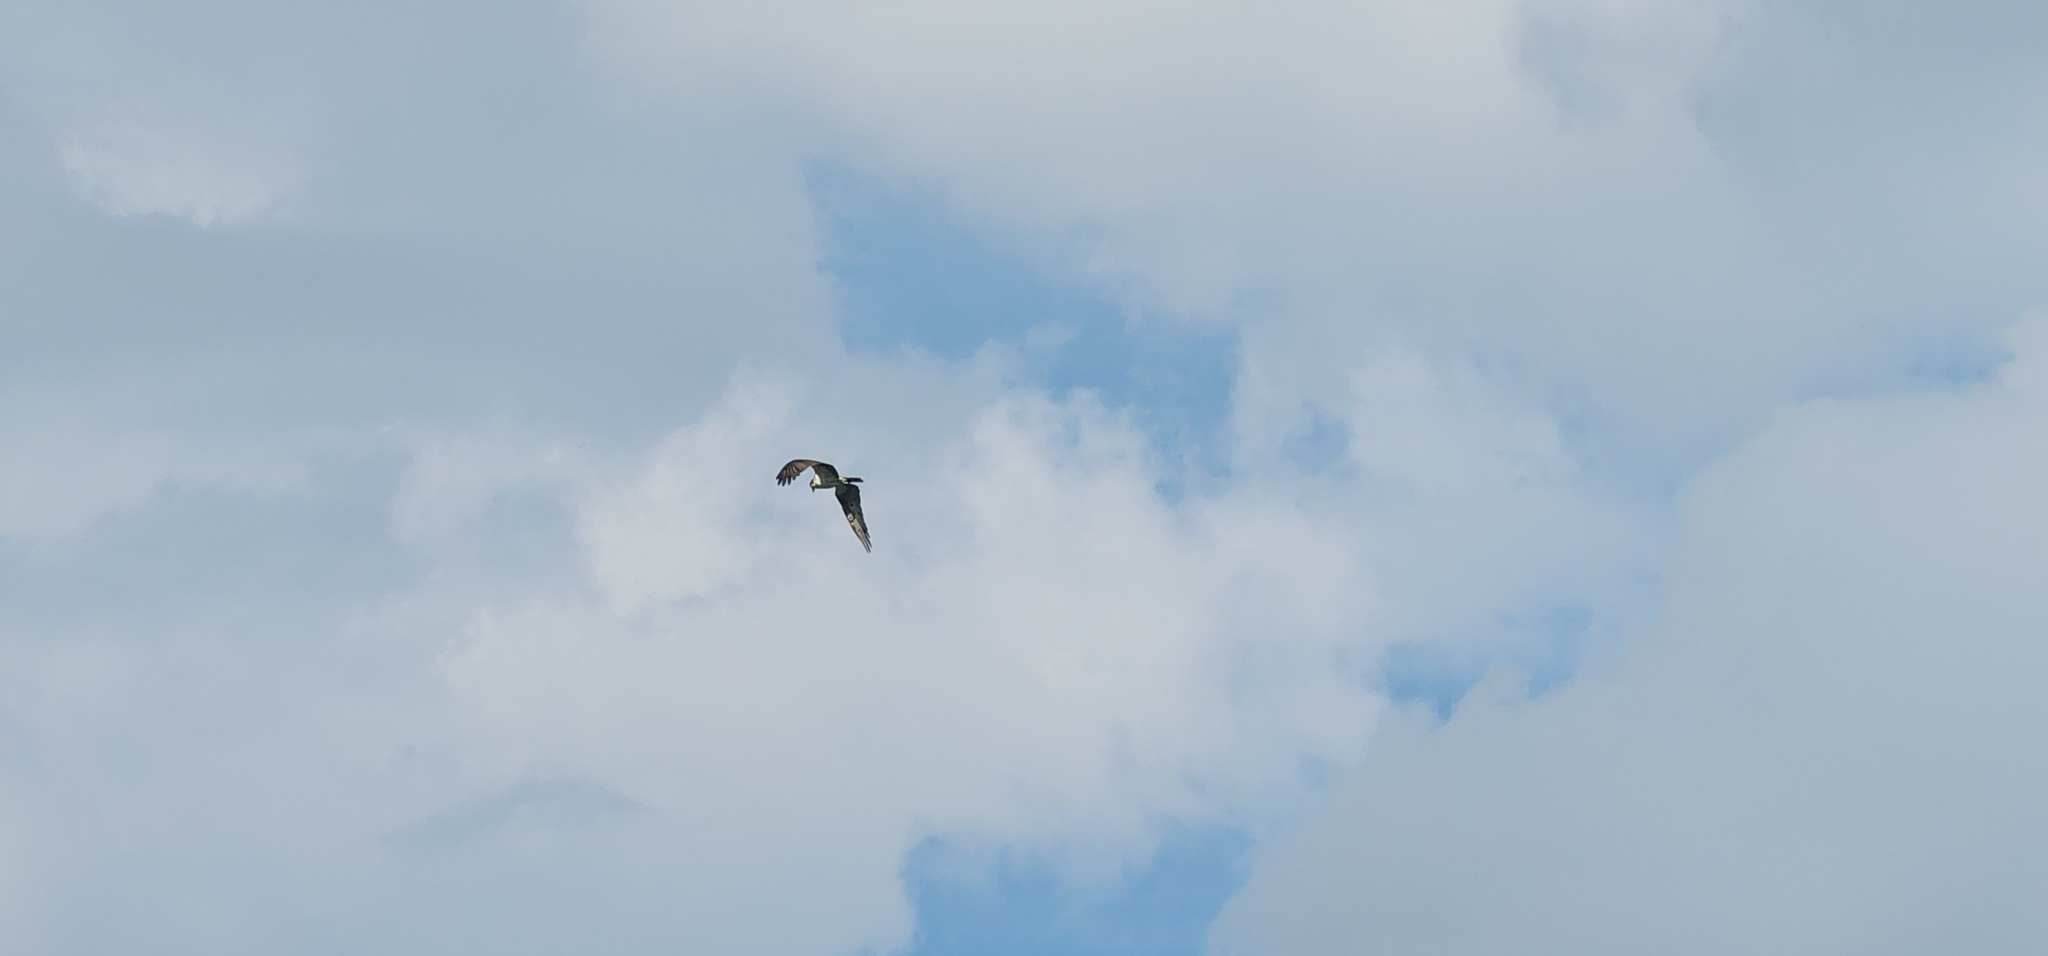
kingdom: Animalia
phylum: Chordata
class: Aves
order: Accipitriformes
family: Pandionidae
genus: Pandion
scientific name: Pandion haliaetus
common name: Osprey
